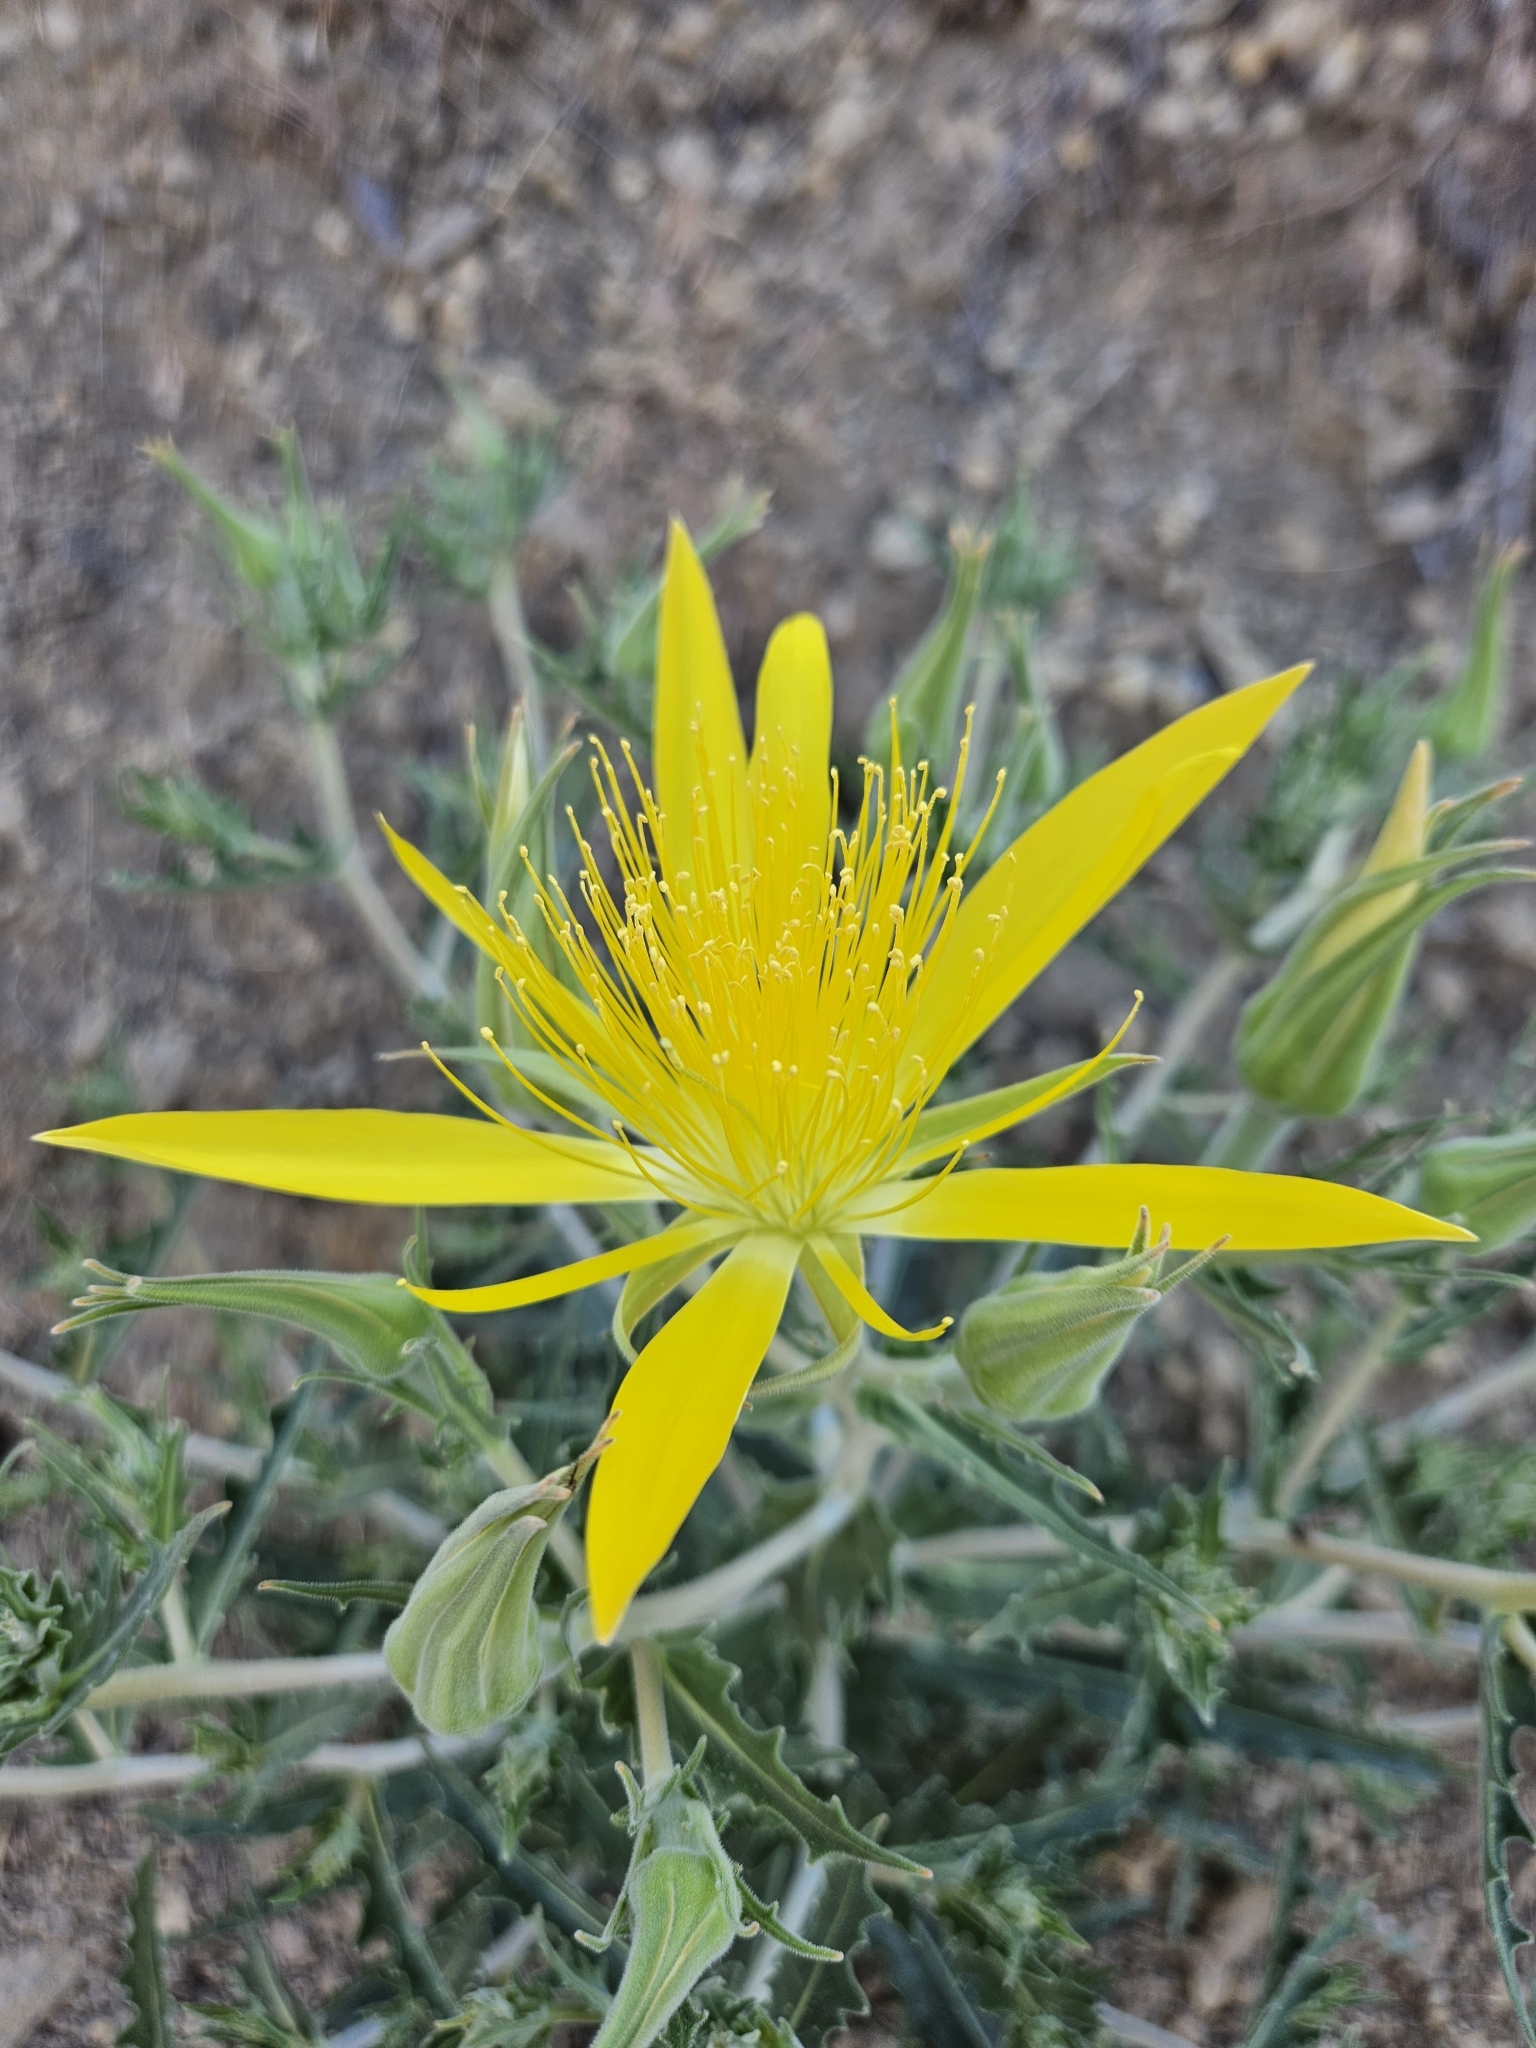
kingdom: Plantae
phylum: Tracheophyta
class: Magnoliopsida
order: Cornales
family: Loasaceae
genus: Mentzelia
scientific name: Mentzelia laevicaulis
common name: Smooth-stem blazingstar
